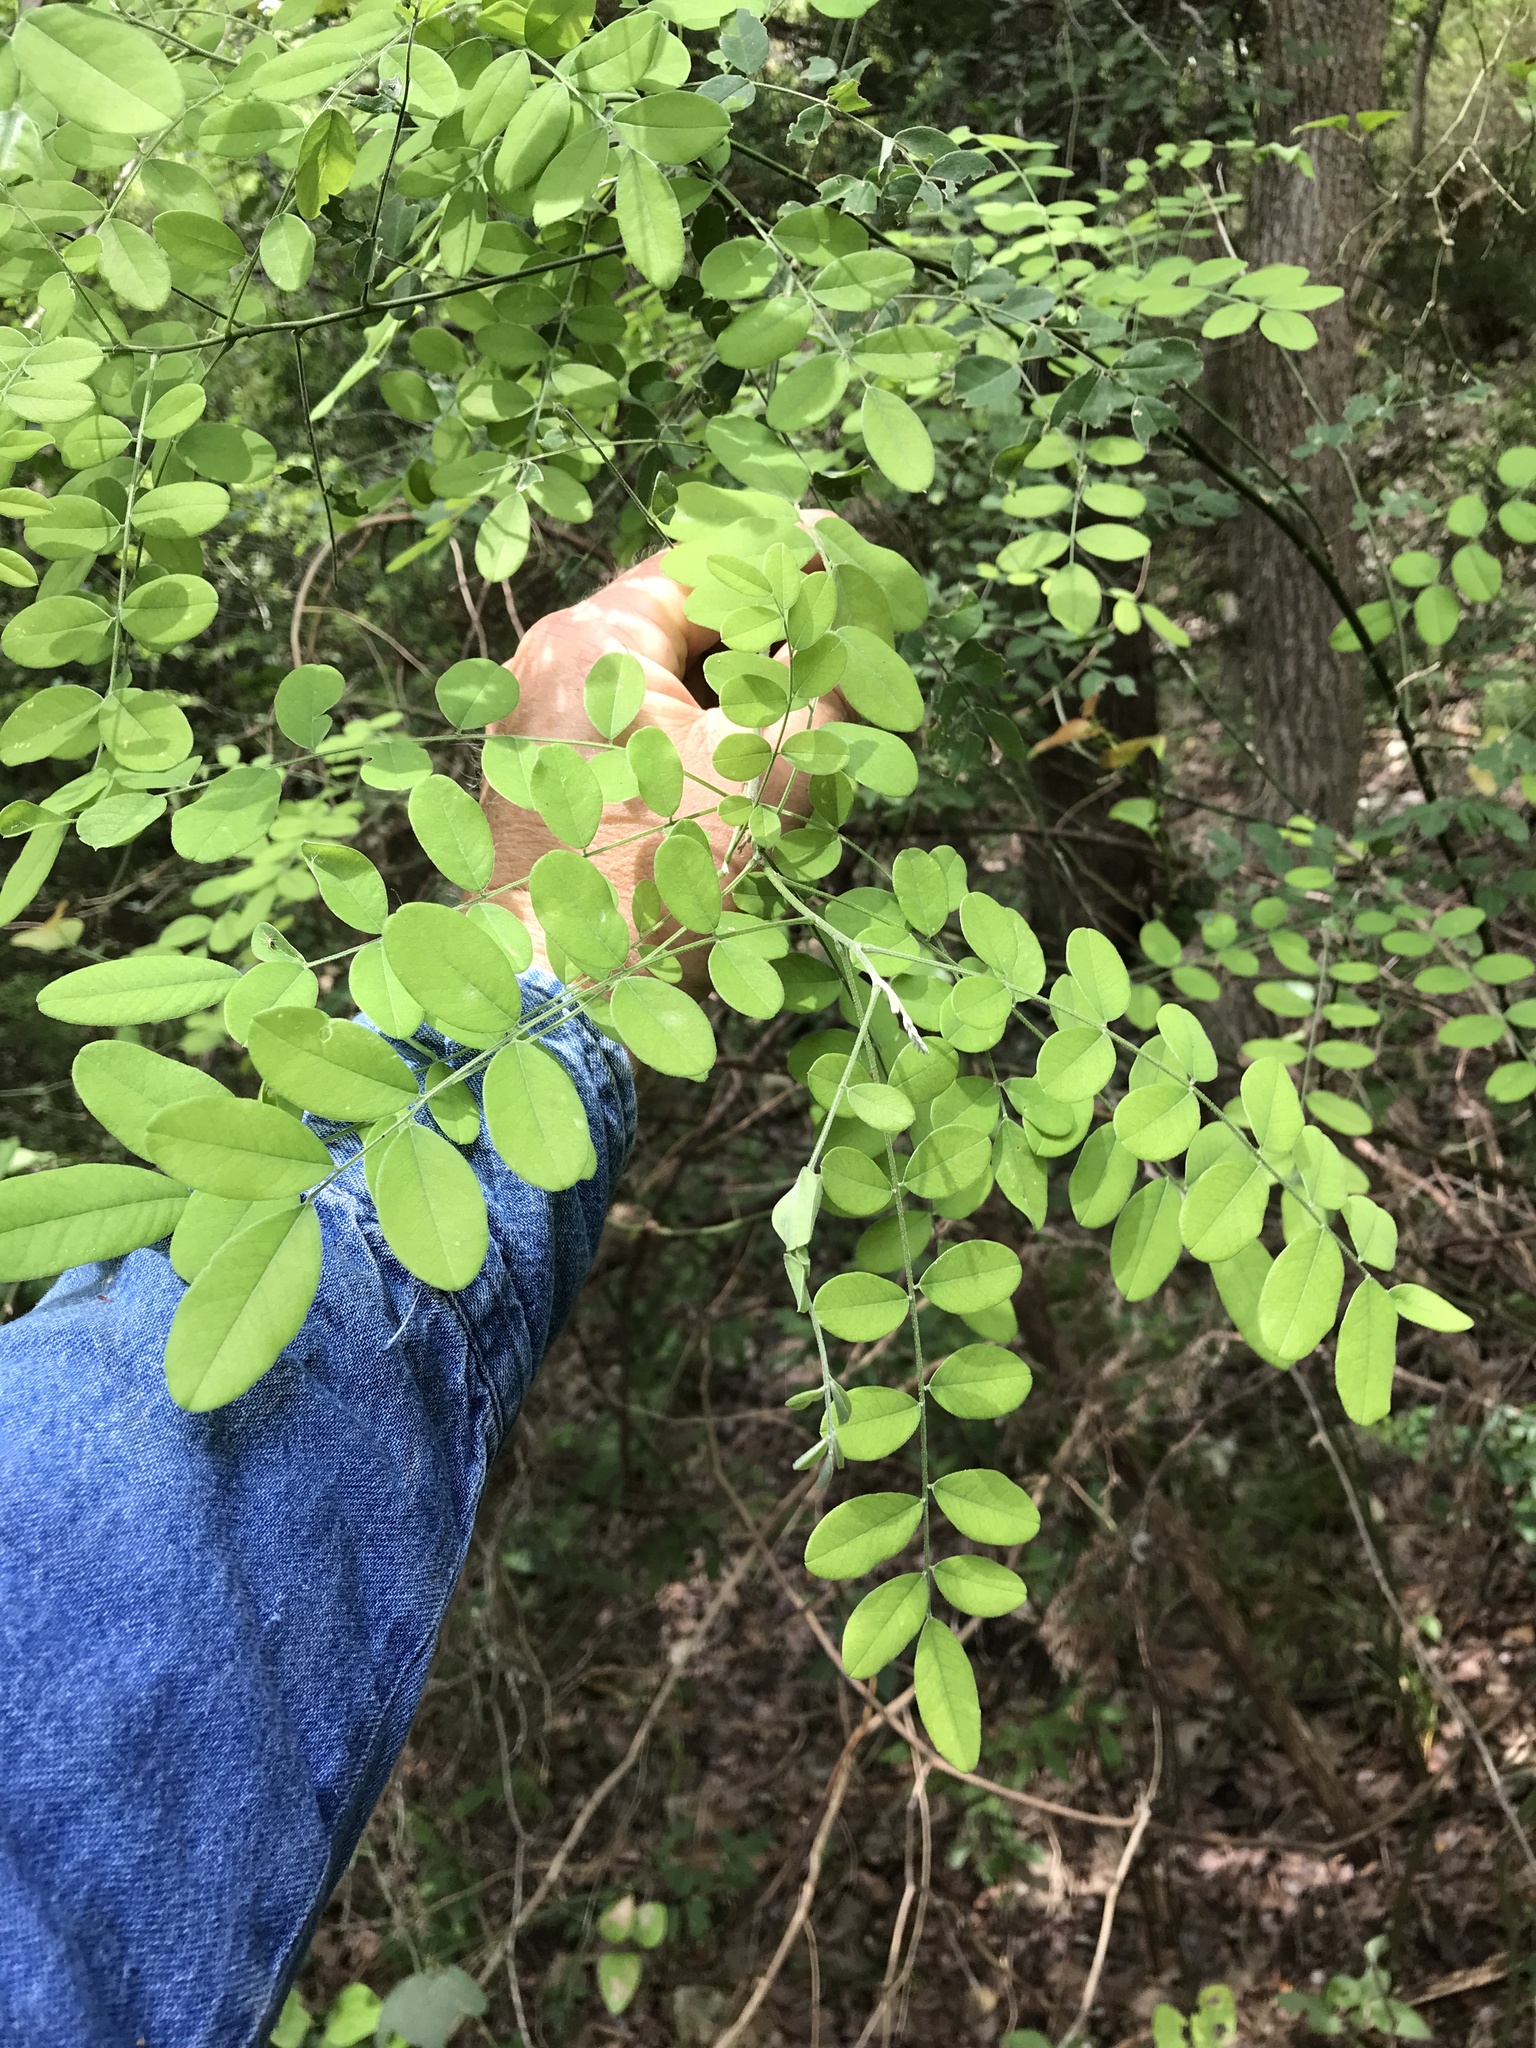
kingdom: Plantae
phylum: Tracheophyta
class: Magnoliopsida
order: Fabales
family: Fabaceae
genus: Styphnolobium
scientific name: Styphnolobium affine
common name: Texas sophora
